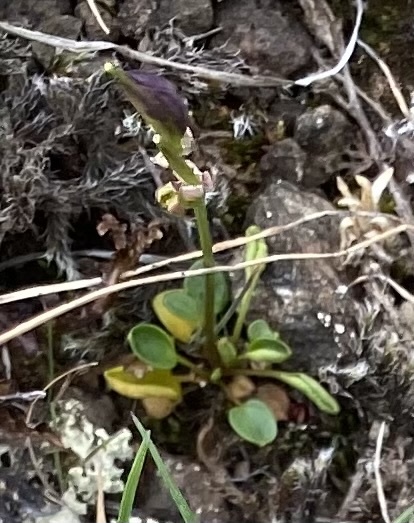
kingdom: Plantae
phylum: Tracheophyta
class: Magnoliopsida
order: Brassicales
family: Brassicaceae
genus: Cardamine
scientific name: Cardamine bellidifolia
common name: Alpine bittercress
